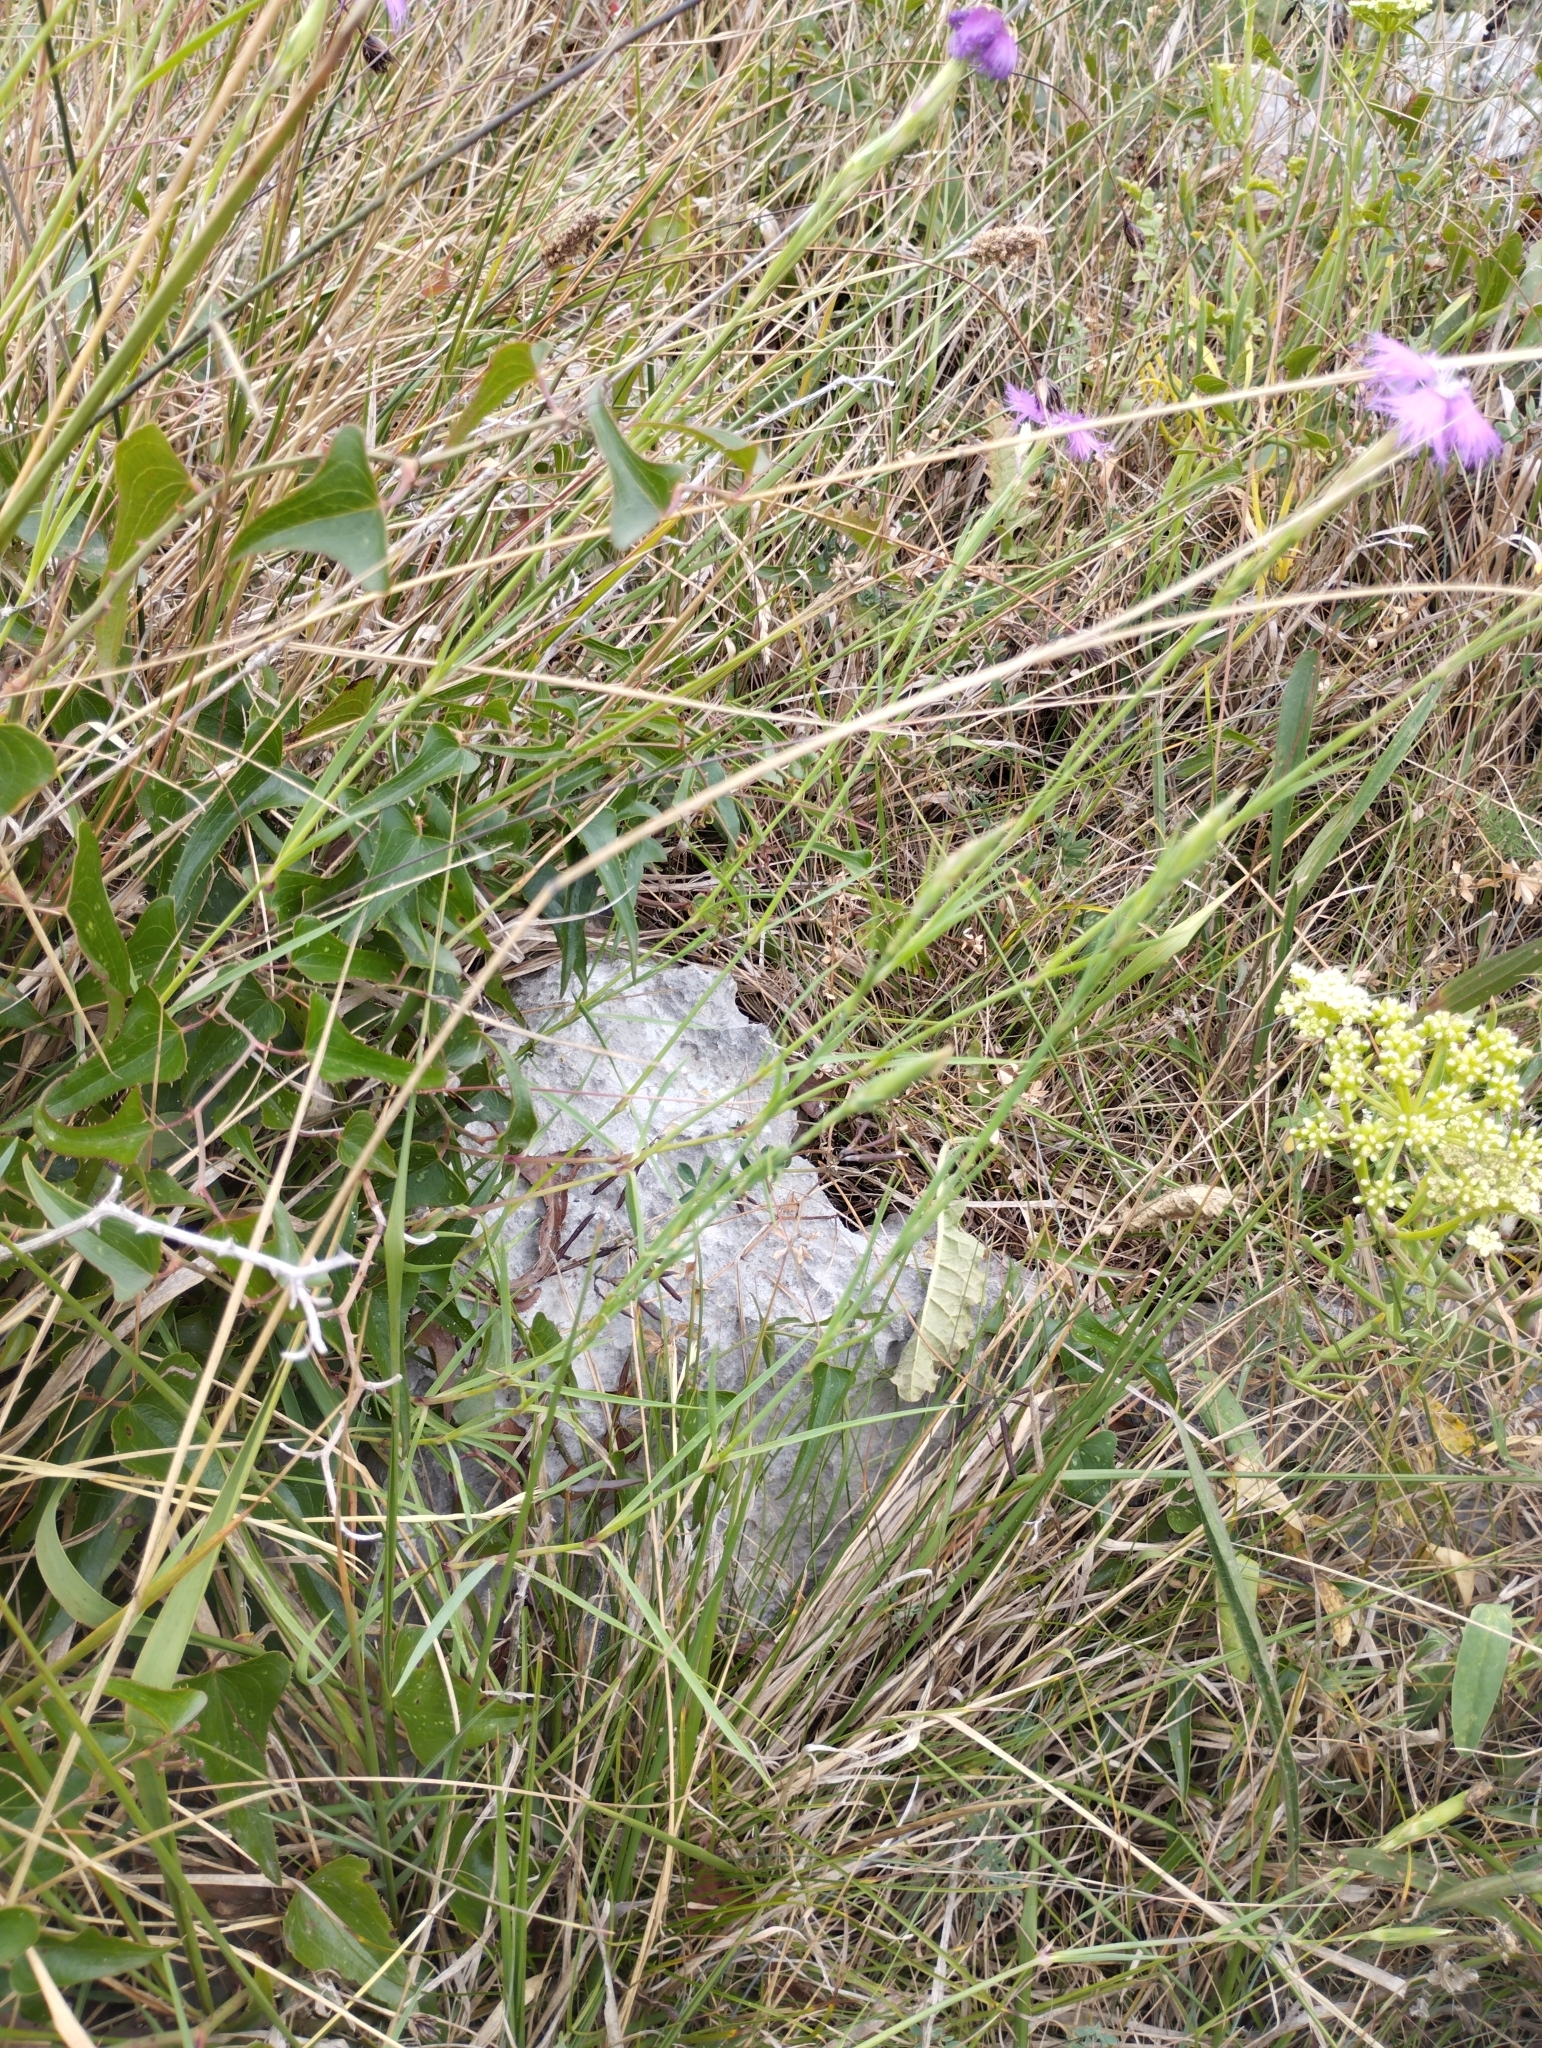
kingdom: Plantae
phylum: Tracheophyta
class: Magnoliopsida
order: Caryophyllales
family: Caryophyllaceae
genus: Dianthus
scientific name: Dianthus gallicus
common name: Jersey pink
